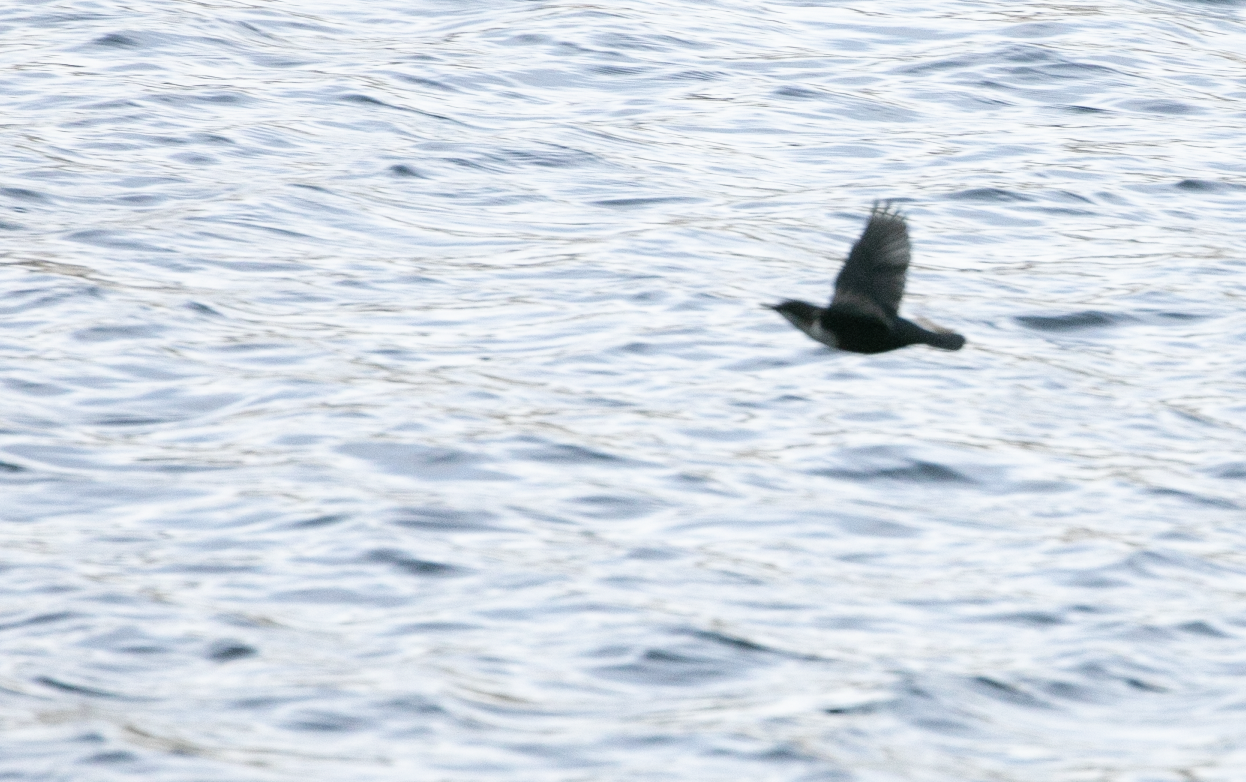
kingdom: Animalia
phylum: Chordata
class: Aves
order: Passeriformes
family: Cinclidae
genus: Cinclus
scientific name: Cinclus cinclus
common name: White-throated dipper
